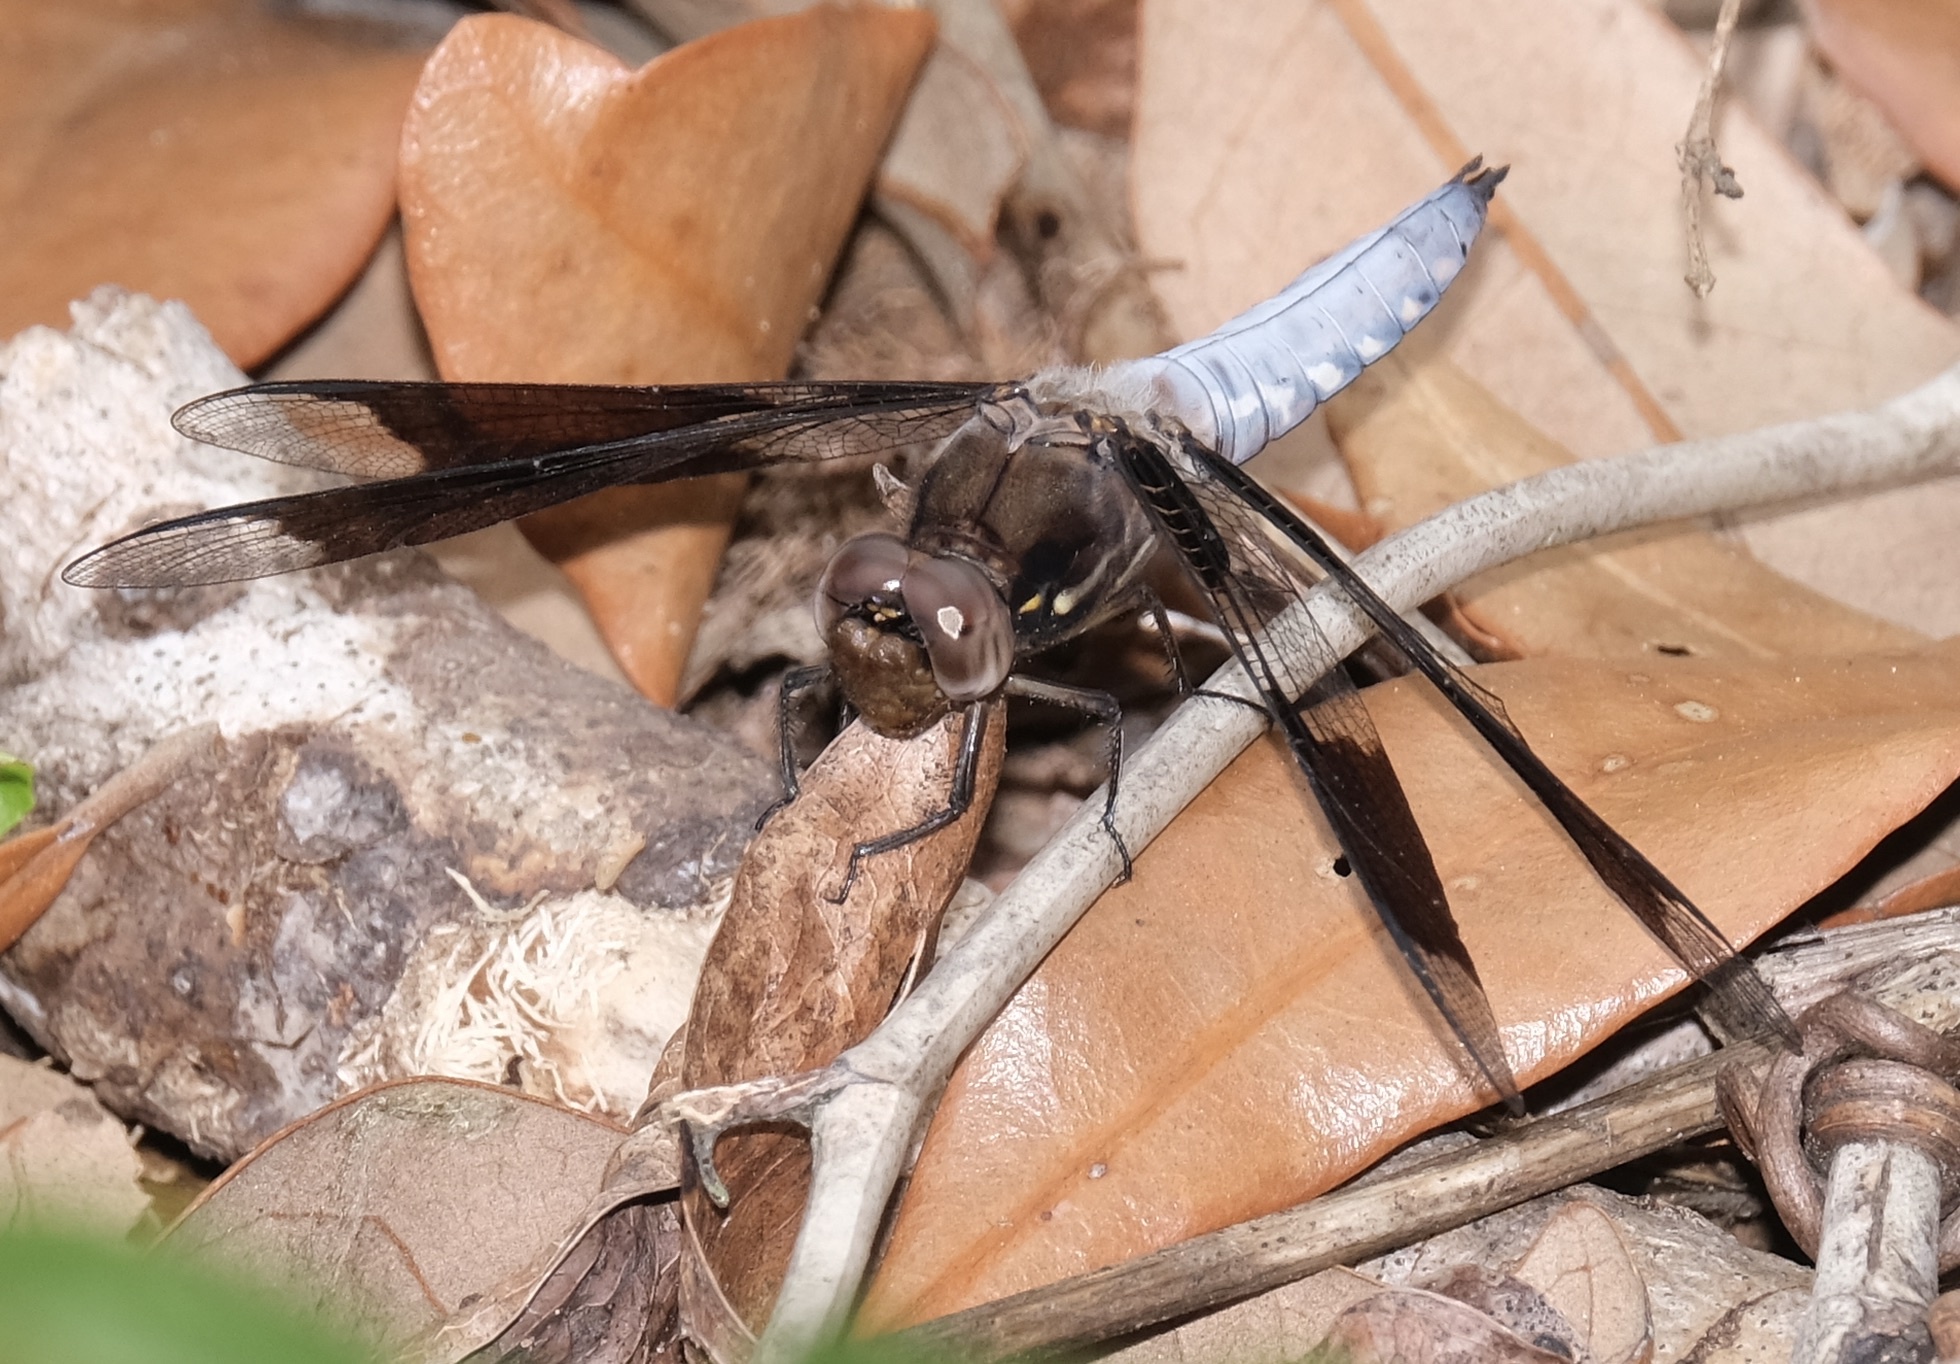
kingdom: Animalia
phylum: Arthropoda
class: Insecta
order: Odonata
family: Libellulidae
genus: Plathemis
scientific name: Plathemis lydia
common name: Common whitetail
